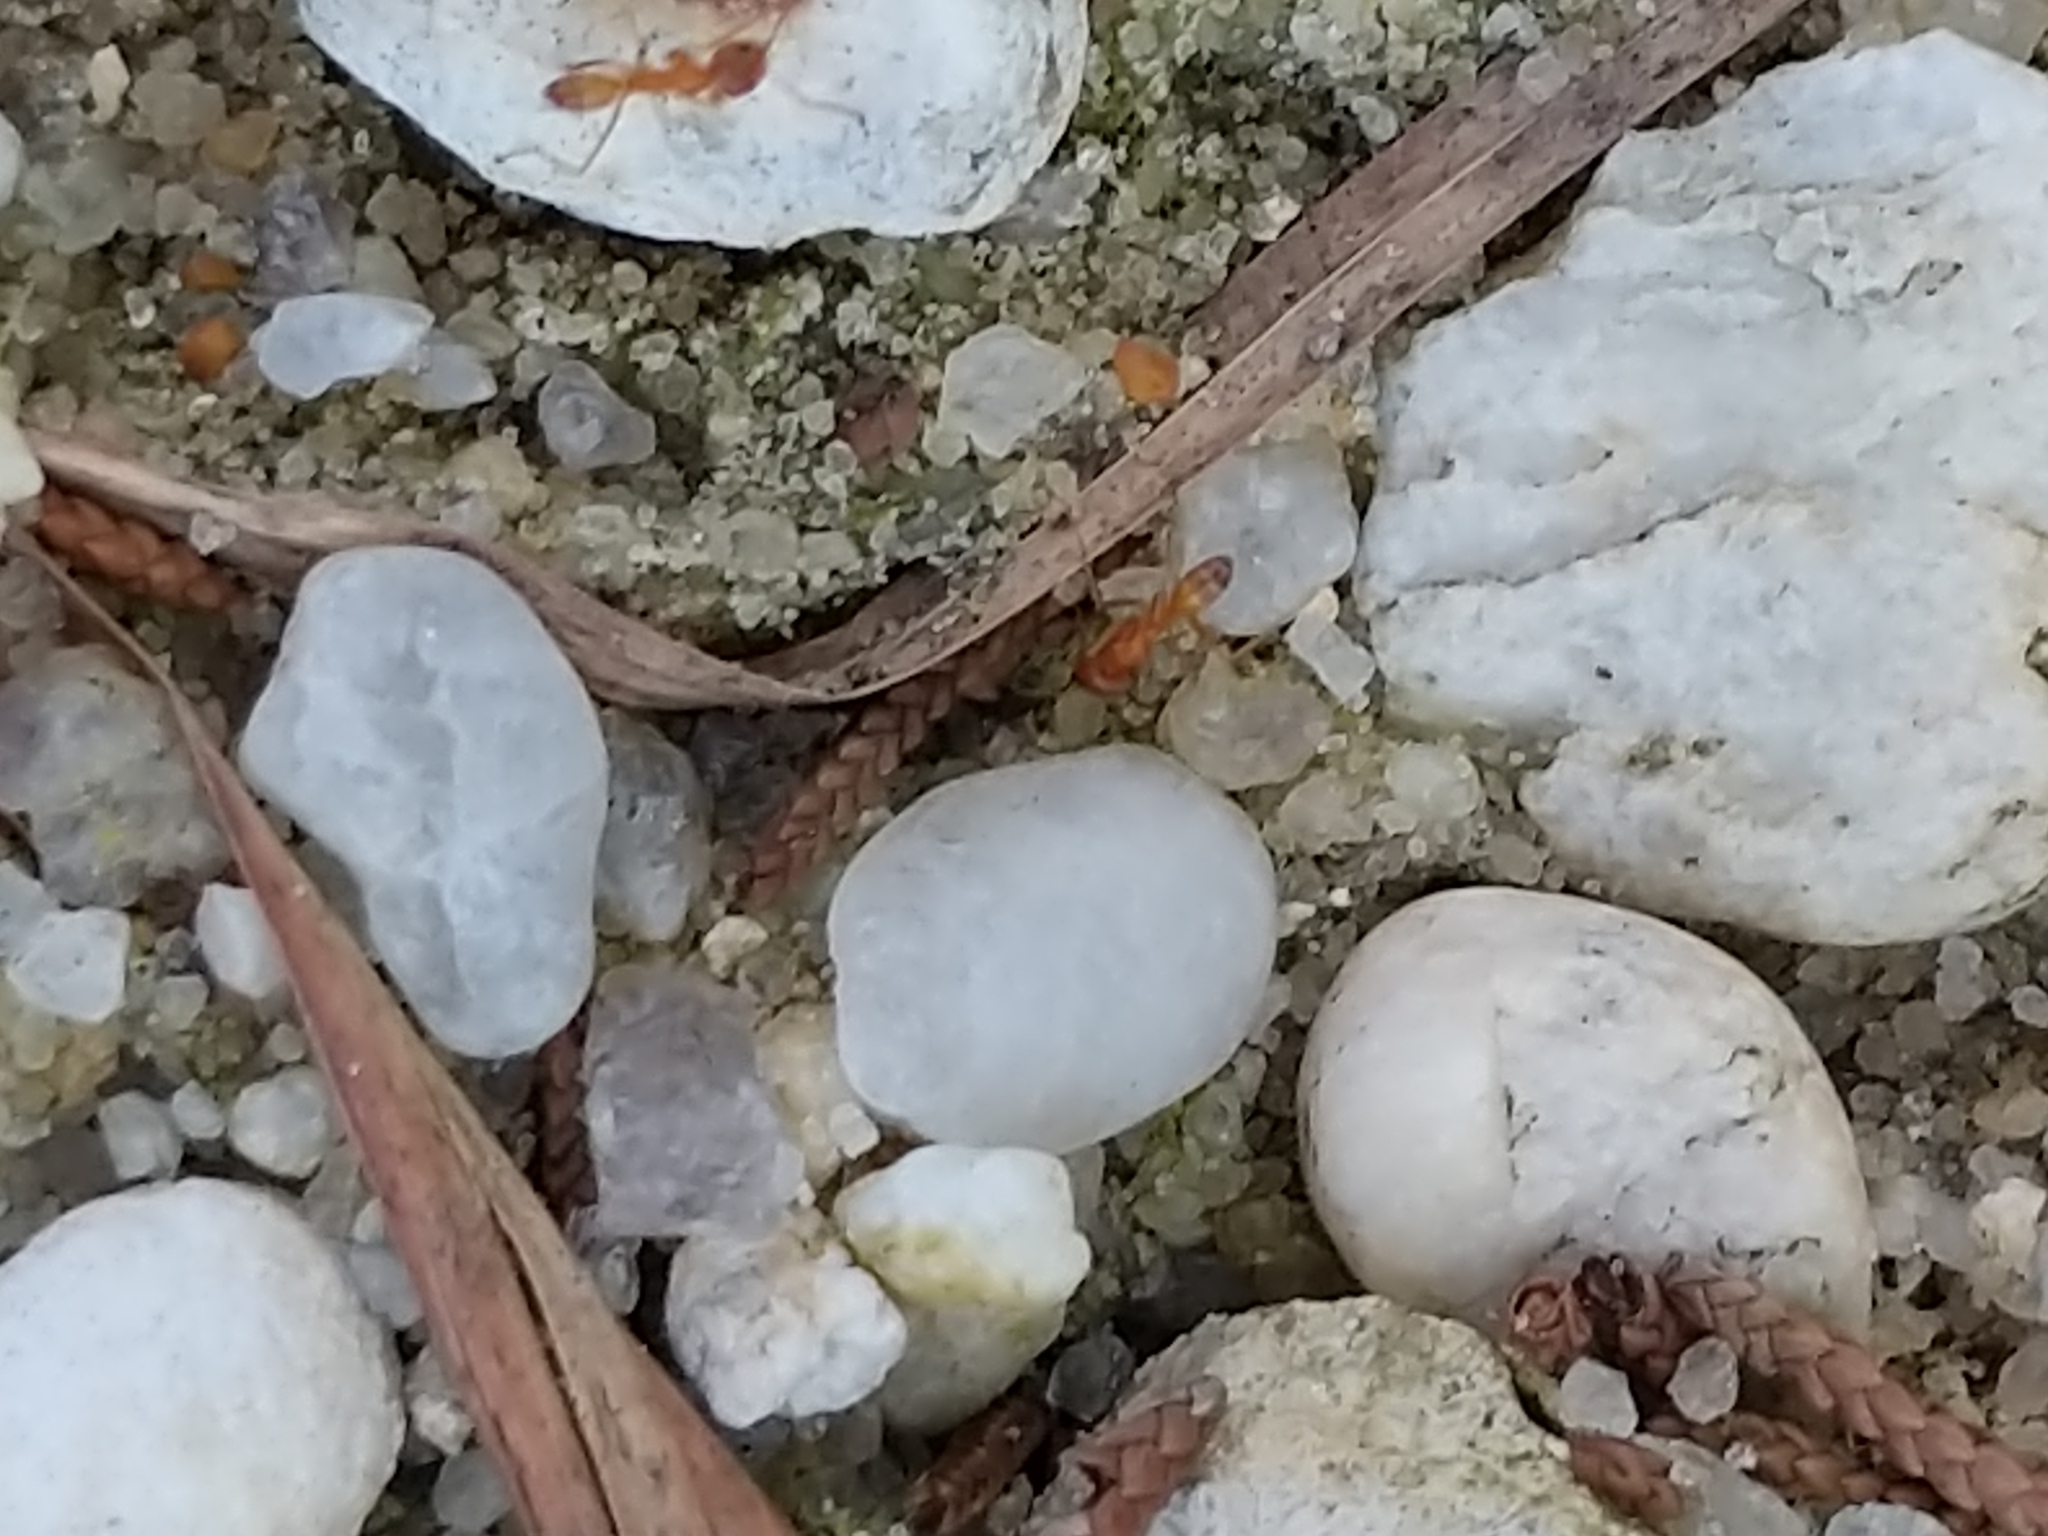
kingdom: Animalia
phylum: Arthropoda
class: Insecta
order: Hymenoptera
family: Formicidae
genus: Dorymyrmex
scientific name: Dorymyrmex bureni
